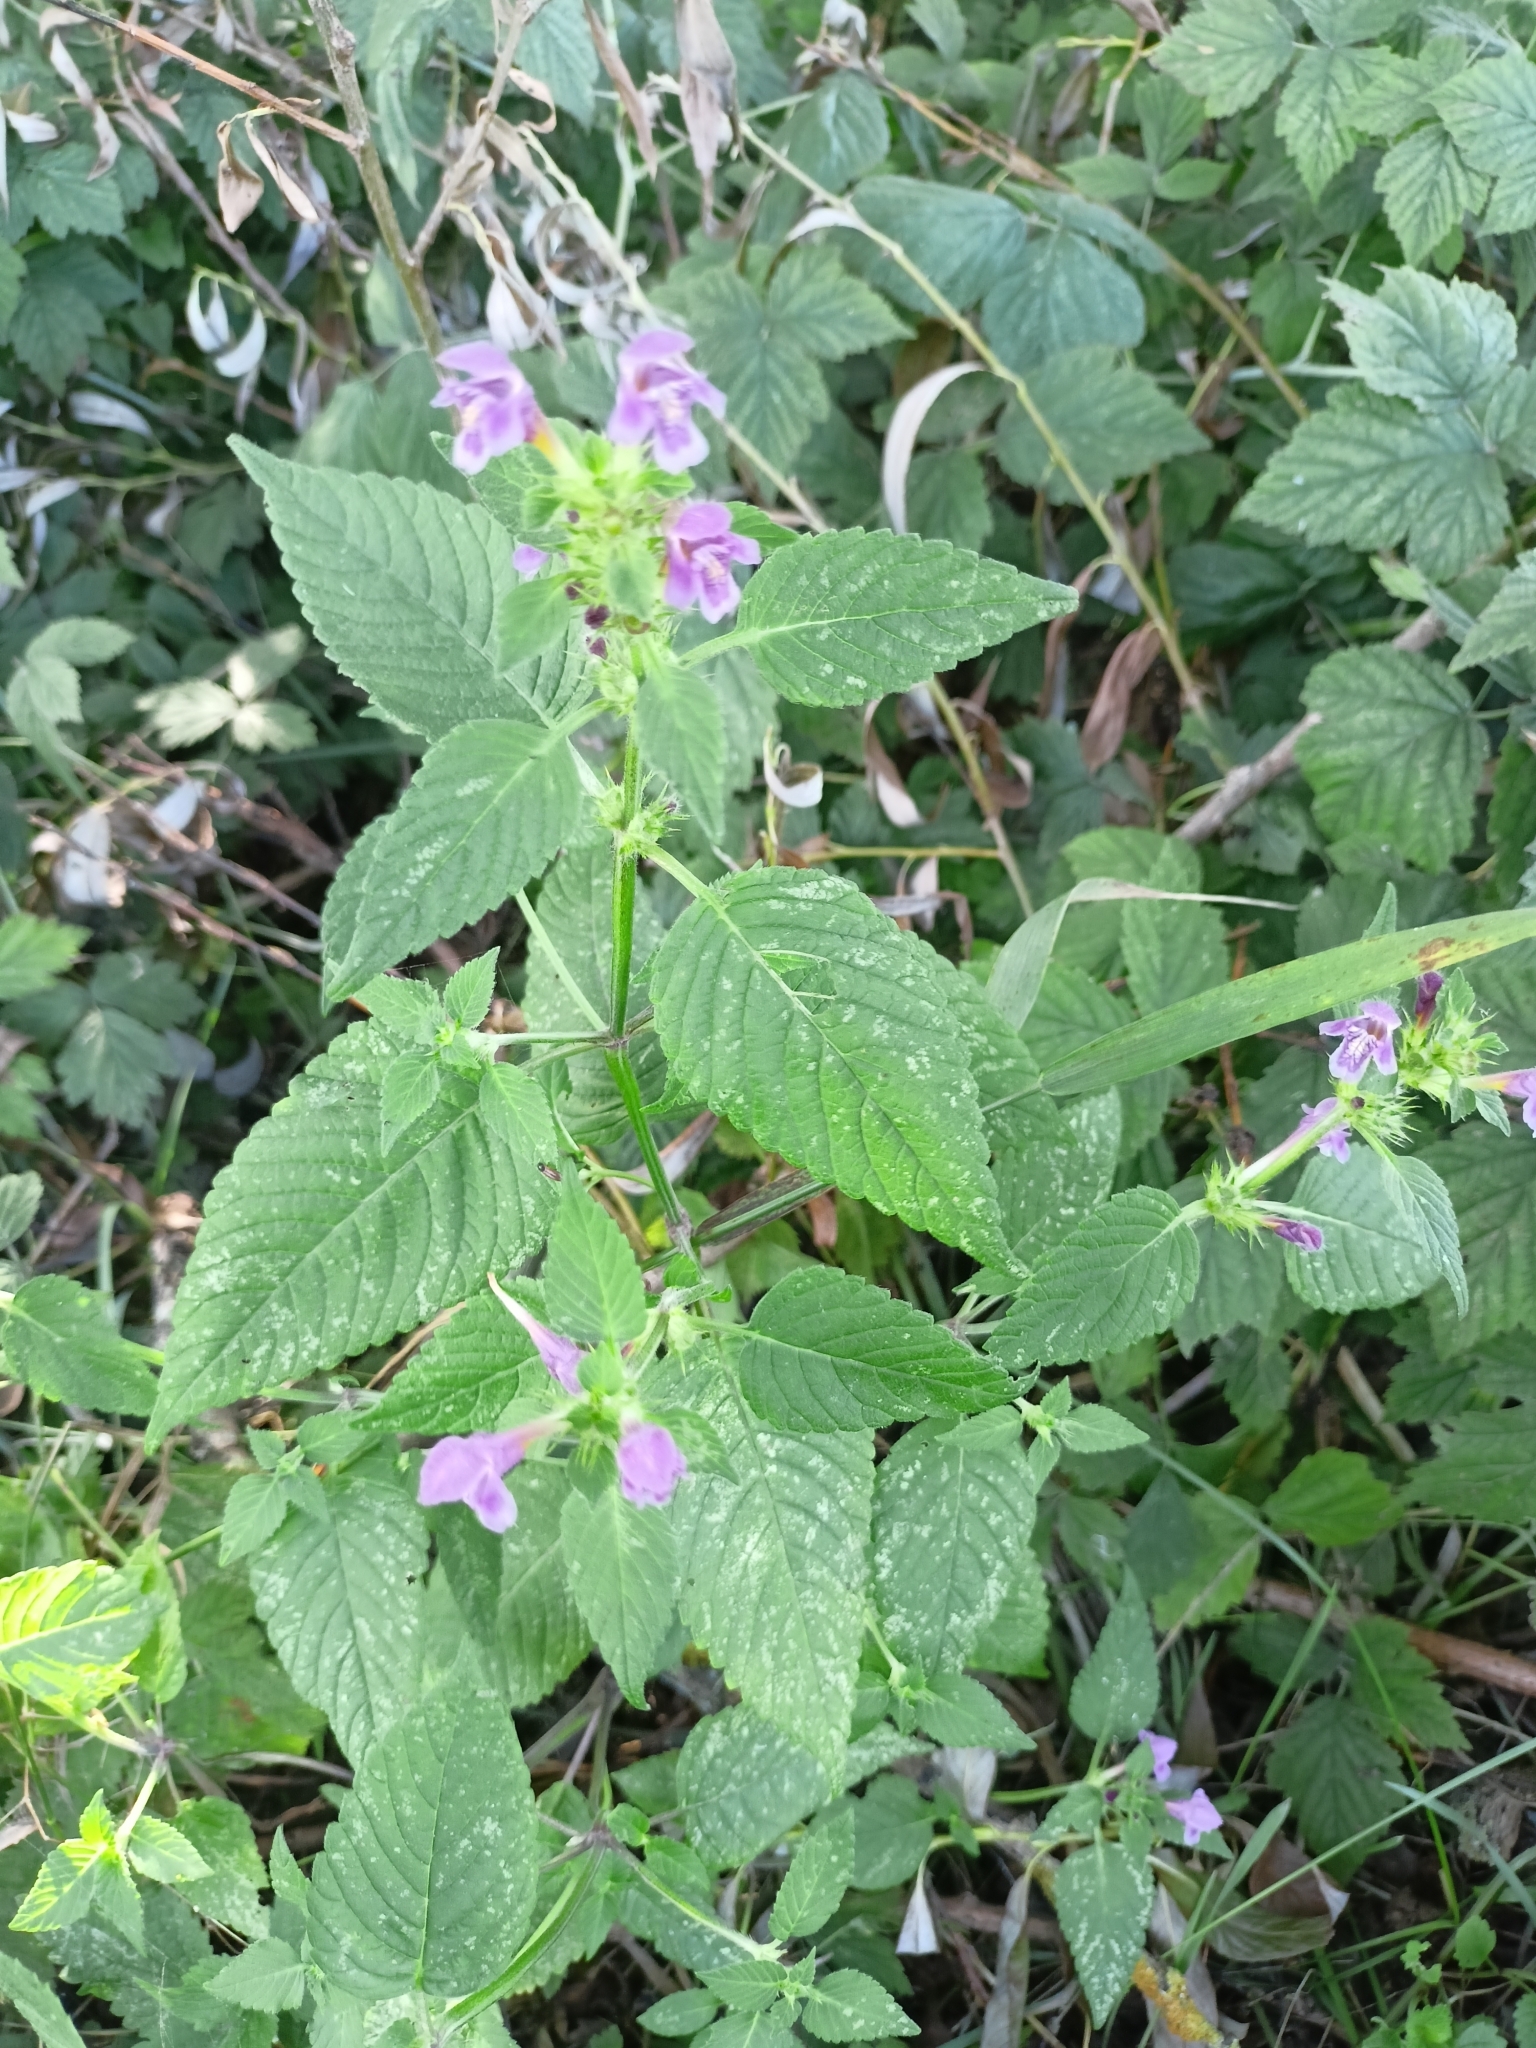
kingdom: Plantae
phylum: Tracheophyta
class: Magnoliopsida
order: Lamiales
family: Lamiaceae
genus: Galeopsis
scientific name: Galeopsis pubescens
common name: Downy hemp-nettle
